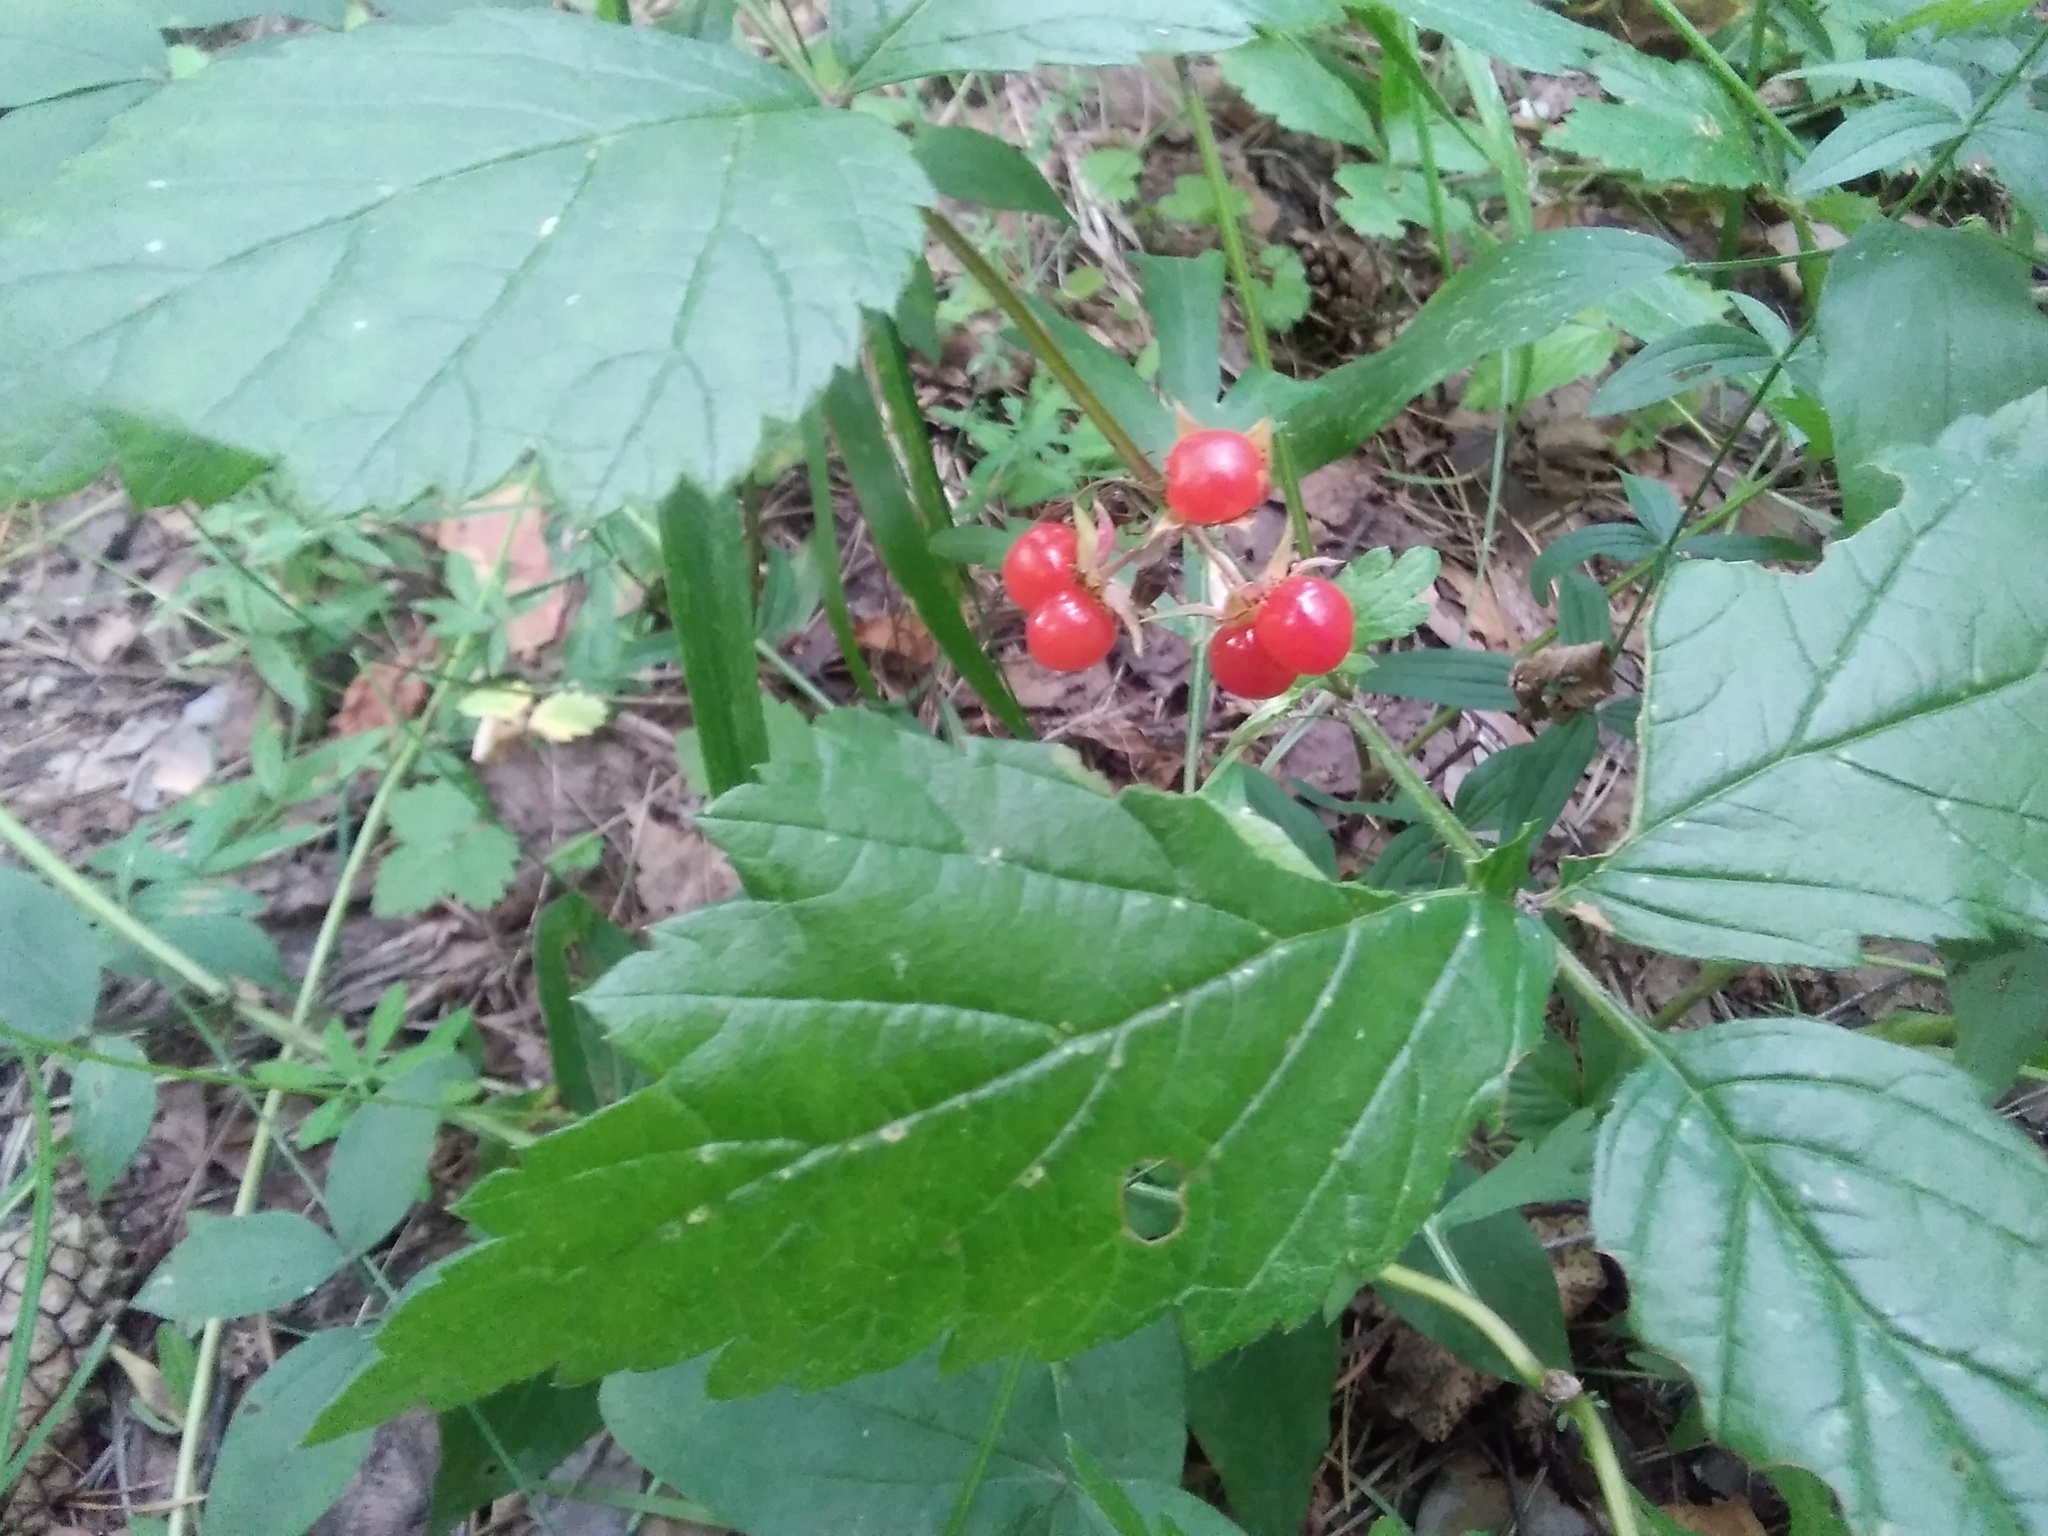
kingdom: Plantae
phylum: Tracheophyta
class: Magnoliopsida
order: Rosales
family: Rosaceae
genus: Rubus
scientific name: Rubus saxatilis
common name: Stone bramble
